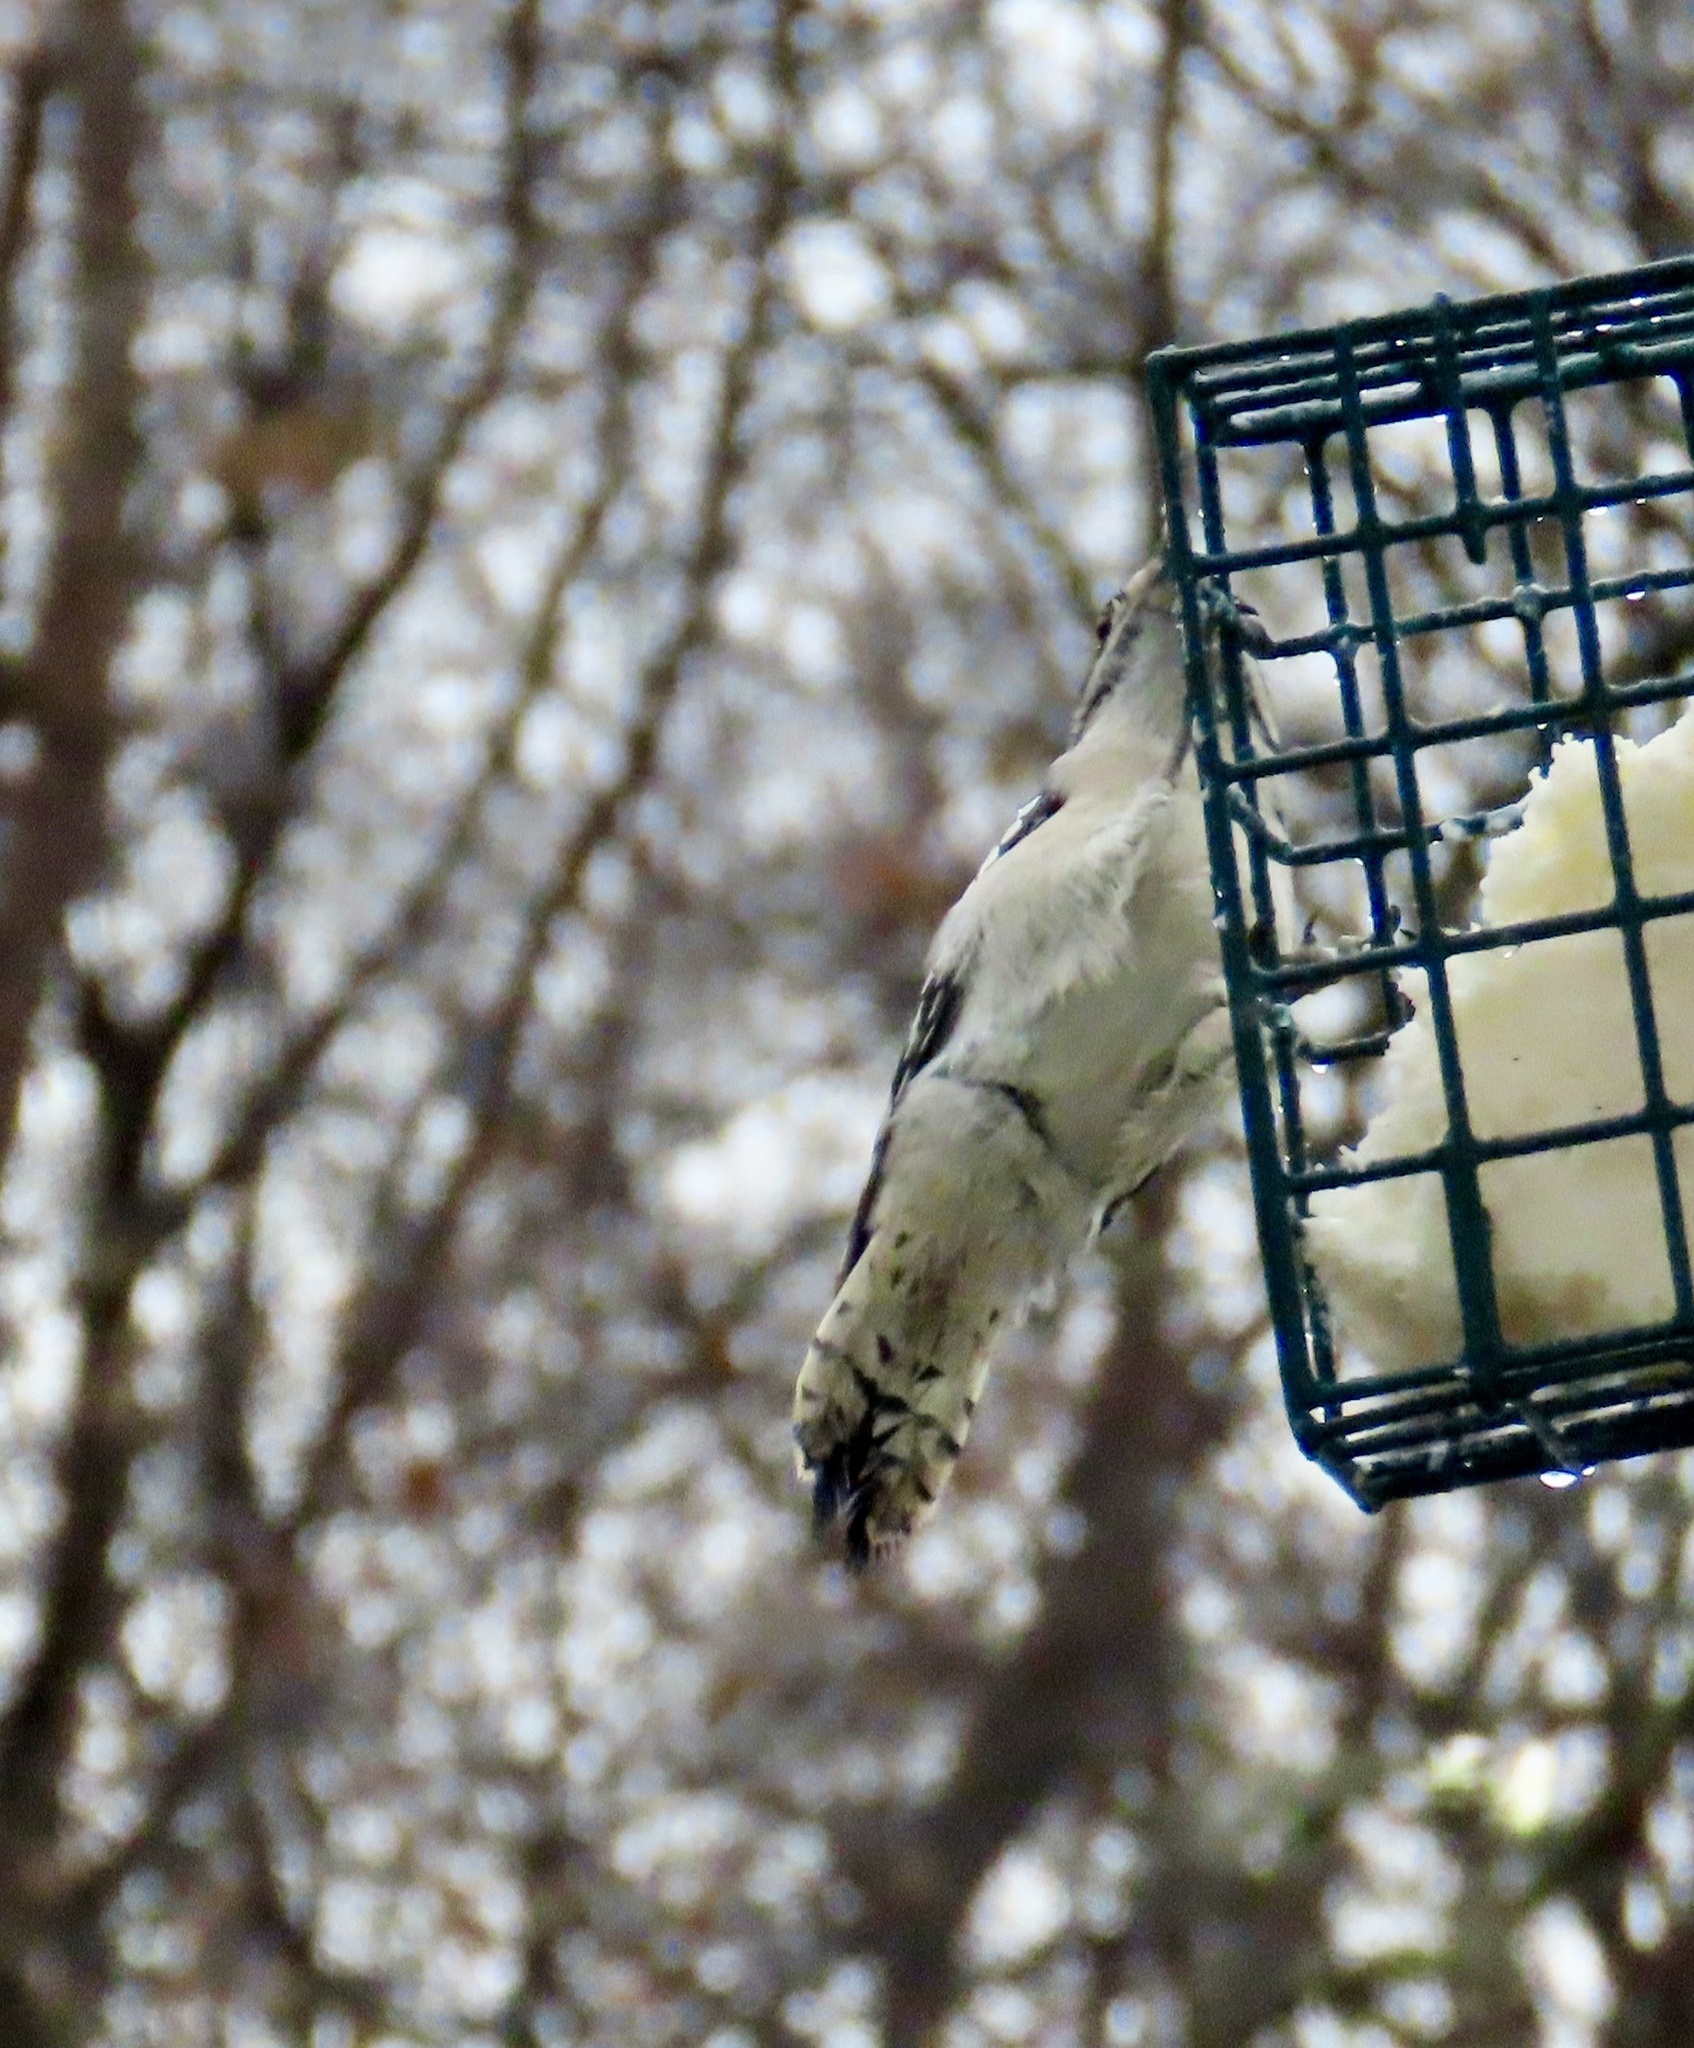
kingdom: Animalia
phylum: Chordata
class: Aves
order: Piciformes
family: Picidae
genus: Dryobates
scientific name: Dryobates pubescens
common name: Downy woodpecker
